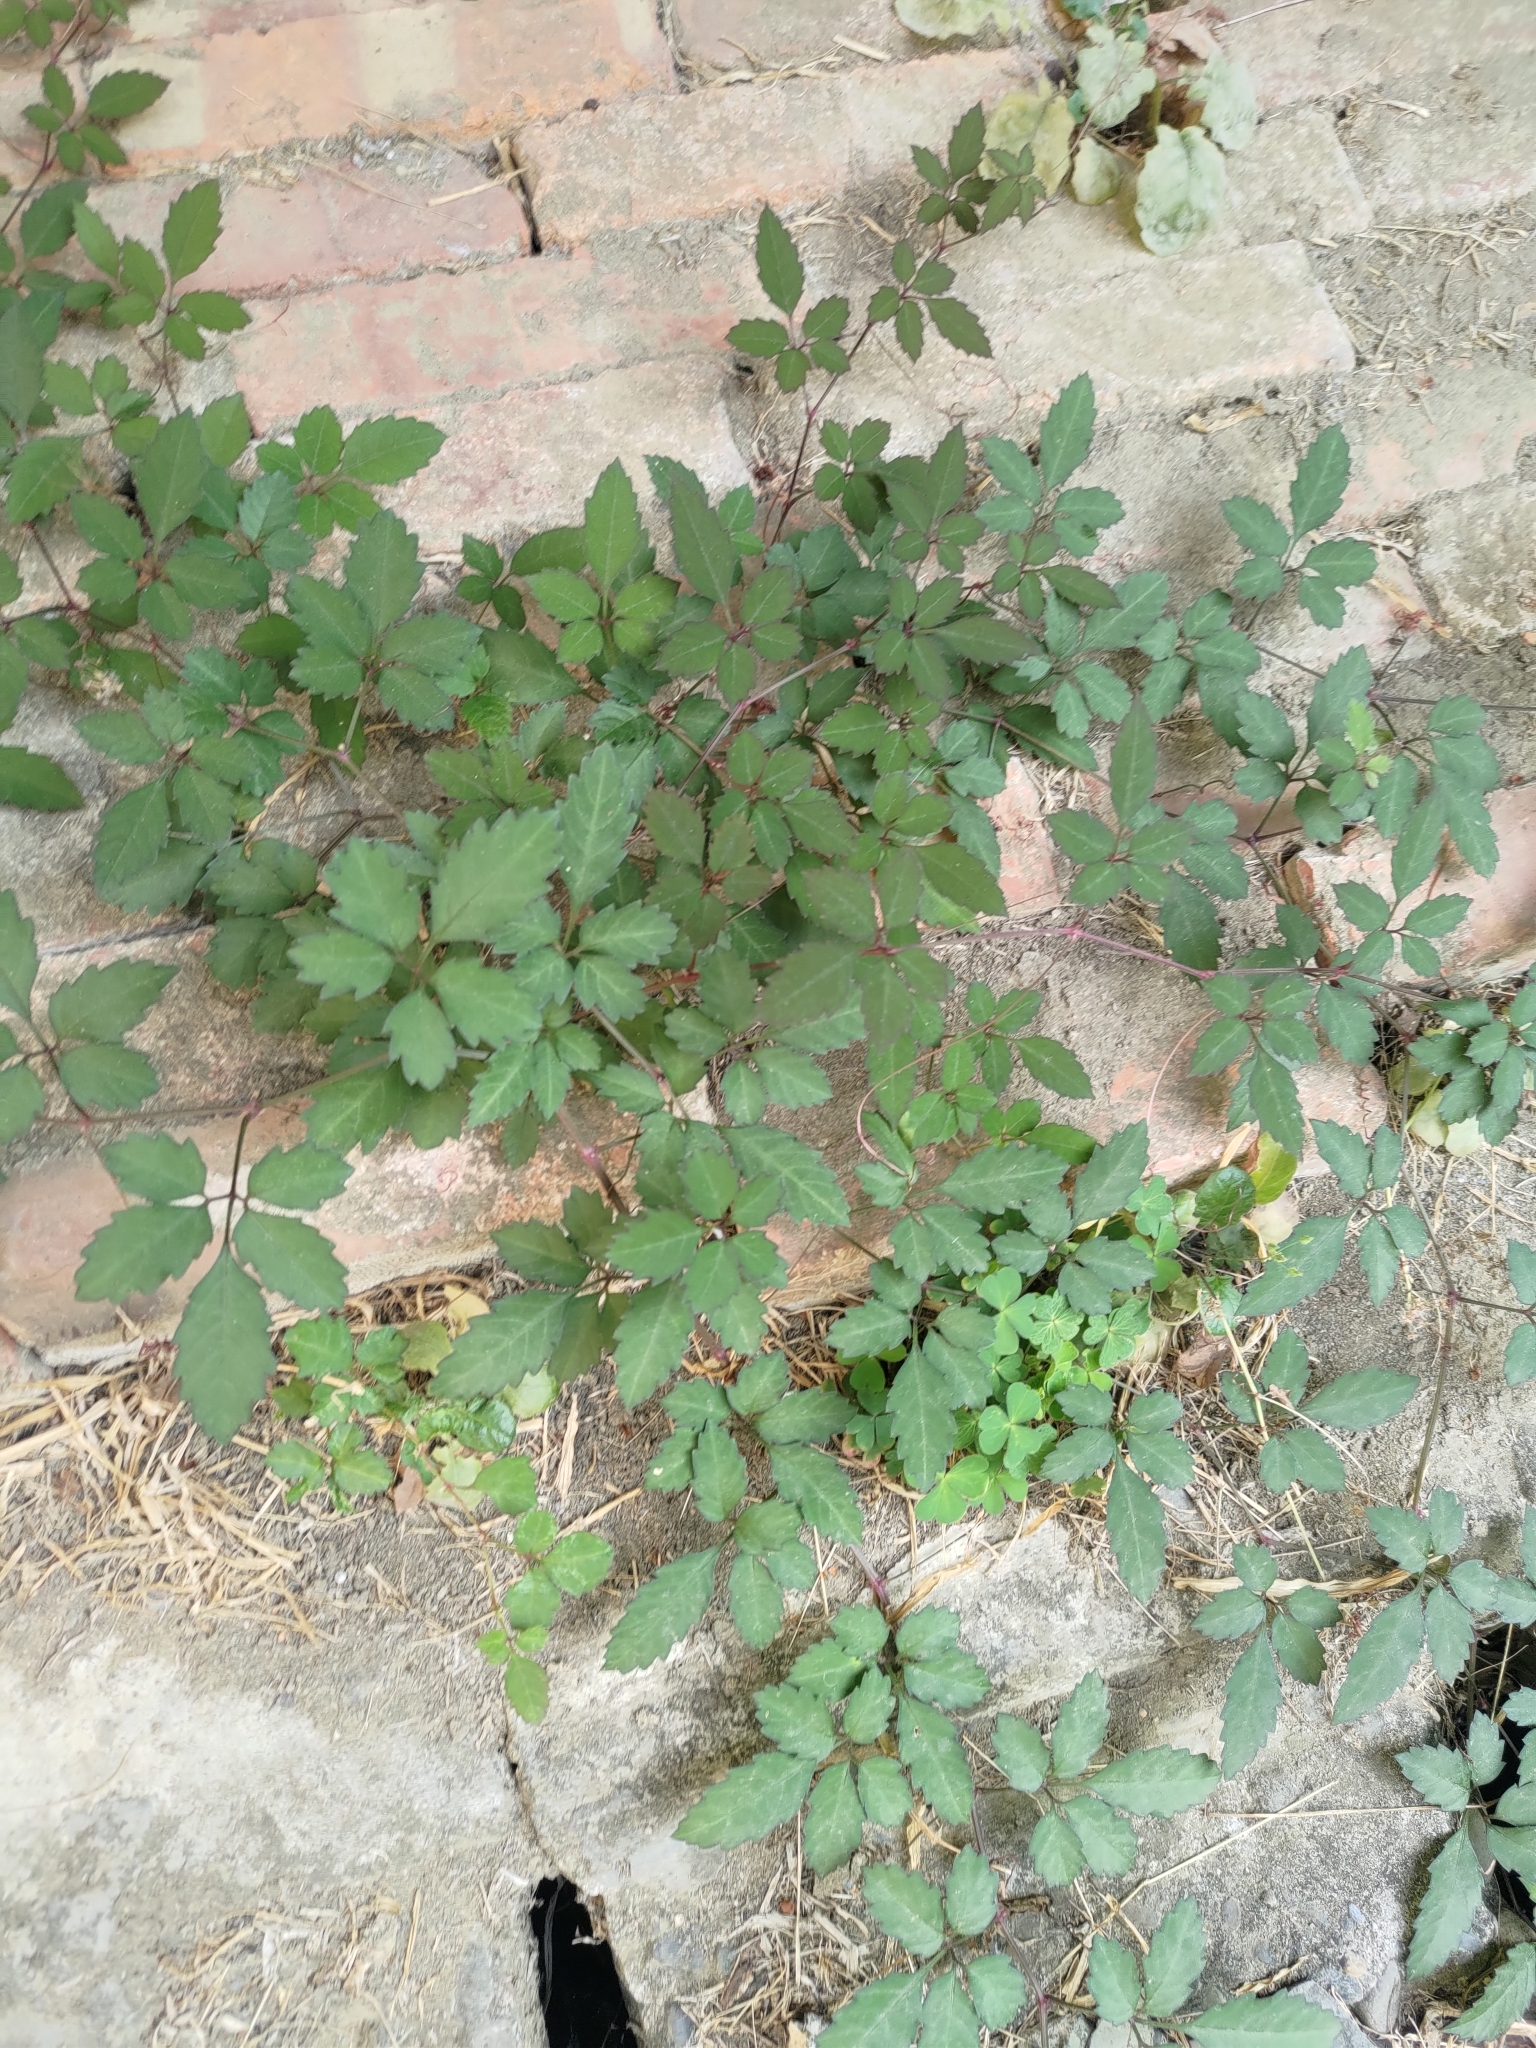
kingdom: Plantae
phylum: Tracheophyta
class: Magnoliopsida
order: Vitales
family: Vitaceae
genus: Causonis
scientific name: Causonis japonica
